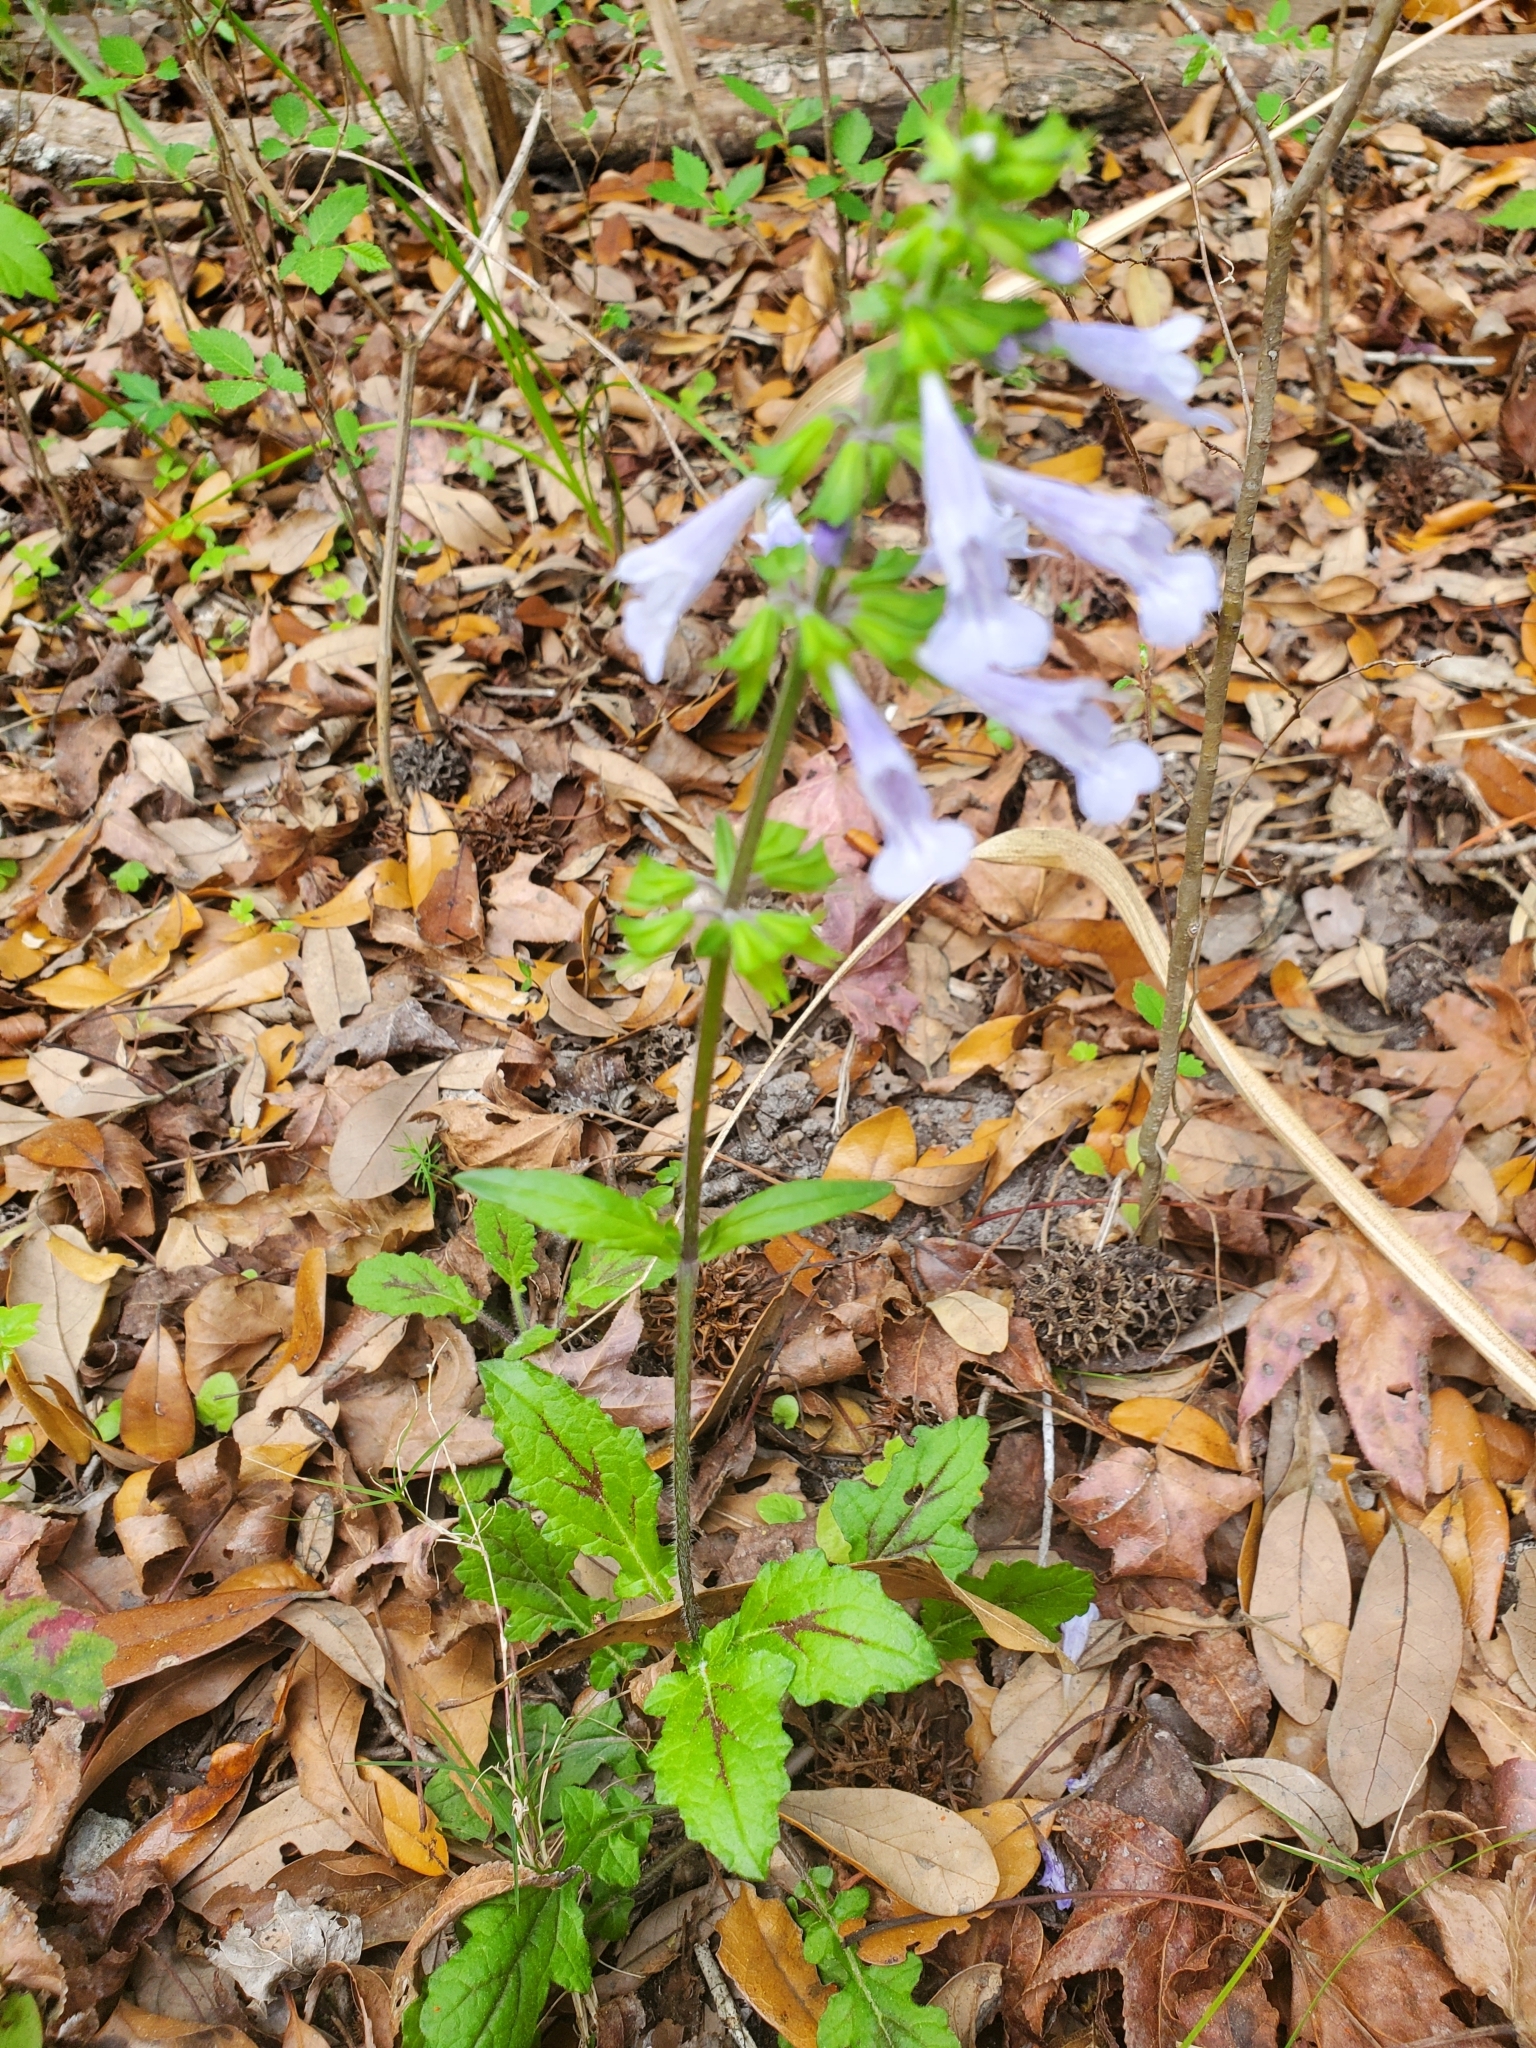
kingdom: Plantae
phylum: Tracheophyta
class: Magnoliopsida
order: Lamiales
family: Lamiaceae
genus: Salvia
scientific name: Salvia lyrata
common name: Cancerweed
